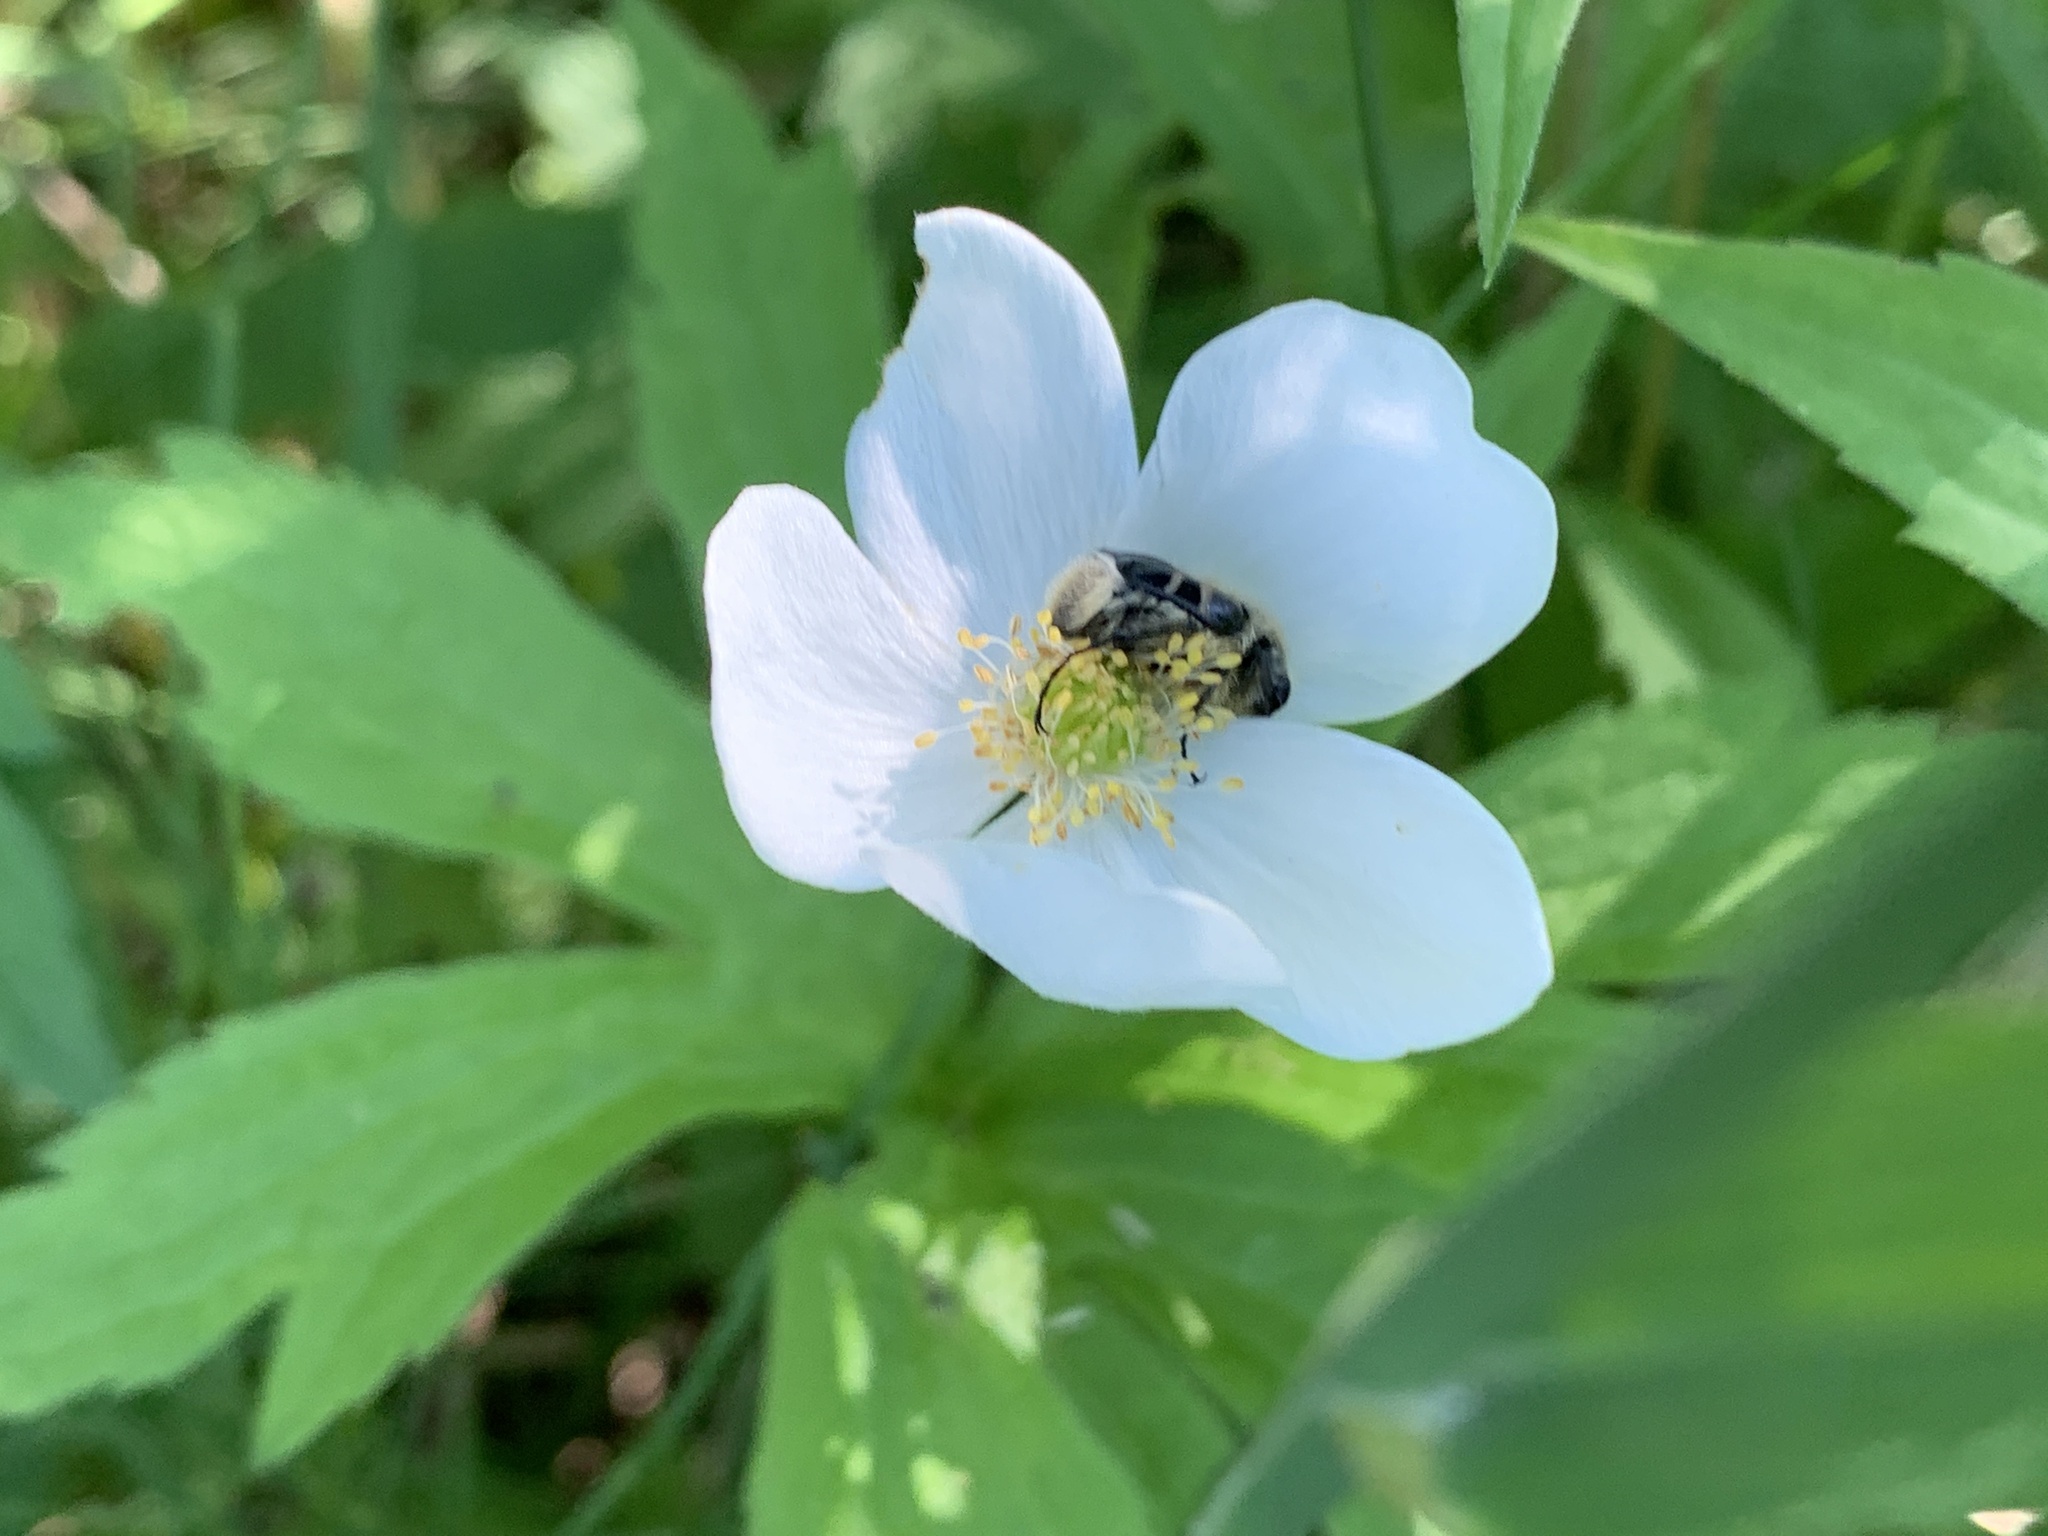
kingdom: Animalia
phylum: Arthropoda
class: Insecta
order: Coleoptera
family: Scarabaeidae
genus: Trichiotinus
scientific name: Trichiotinus assimilis
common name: Bee-mimic beetle
